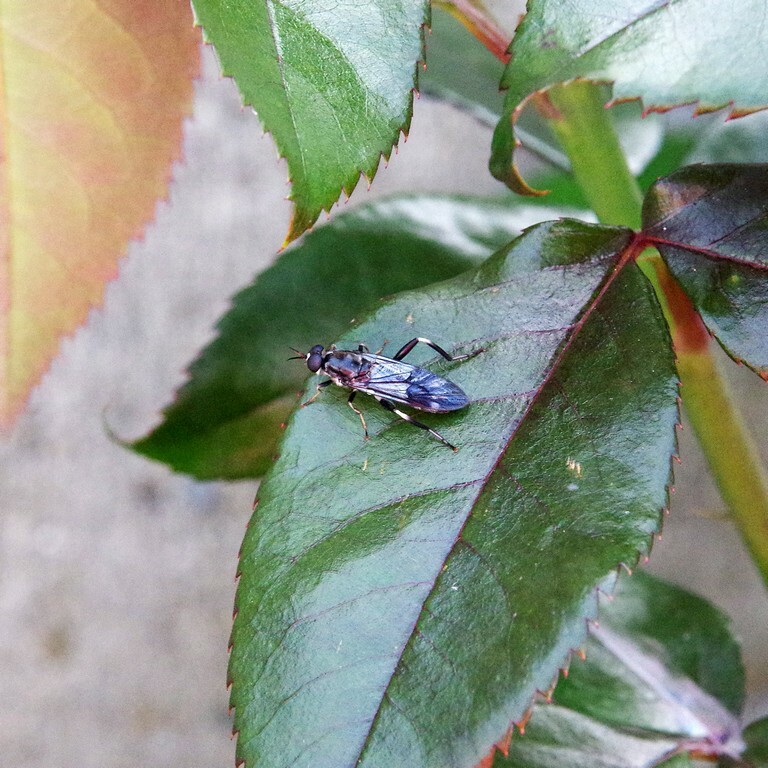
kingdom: Animalia
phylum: Arthropoda
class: Insecta
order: Diptera
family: Stratiomyidae
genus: Exaireta
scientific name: Exaireta spinigera
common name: Blue soldier fly
